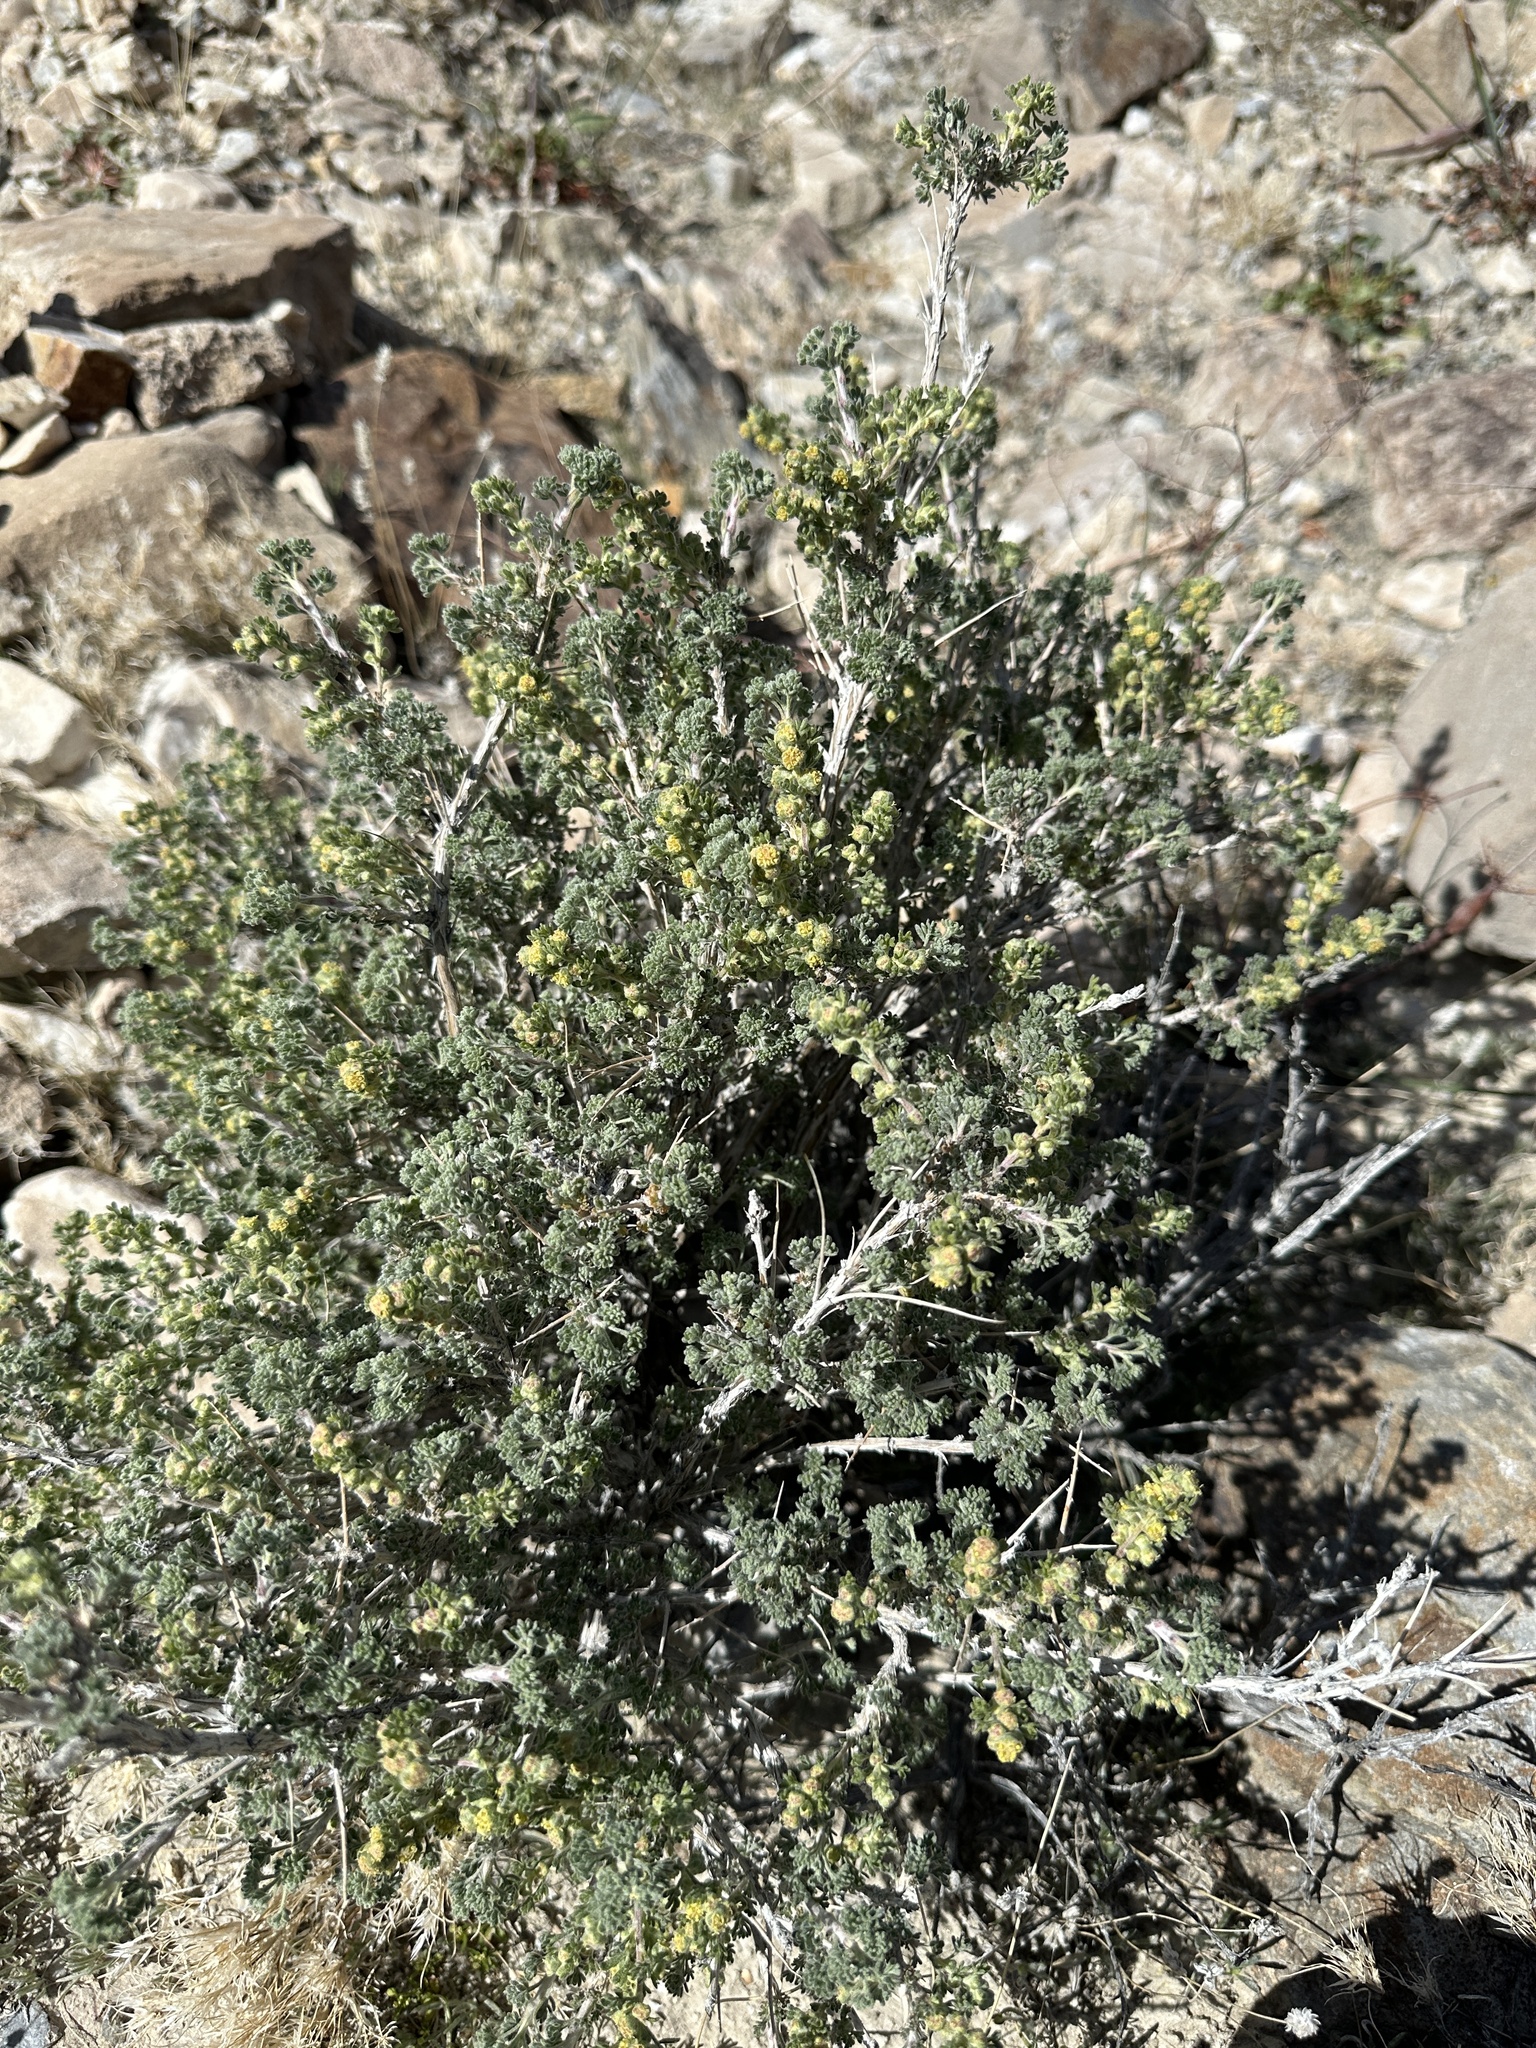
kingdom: Plantae
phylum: Tracheophyta
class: Magnoliopsida
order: Asterales
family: Asteraceae
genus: Artemisia
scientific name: Artemisia spinescens
